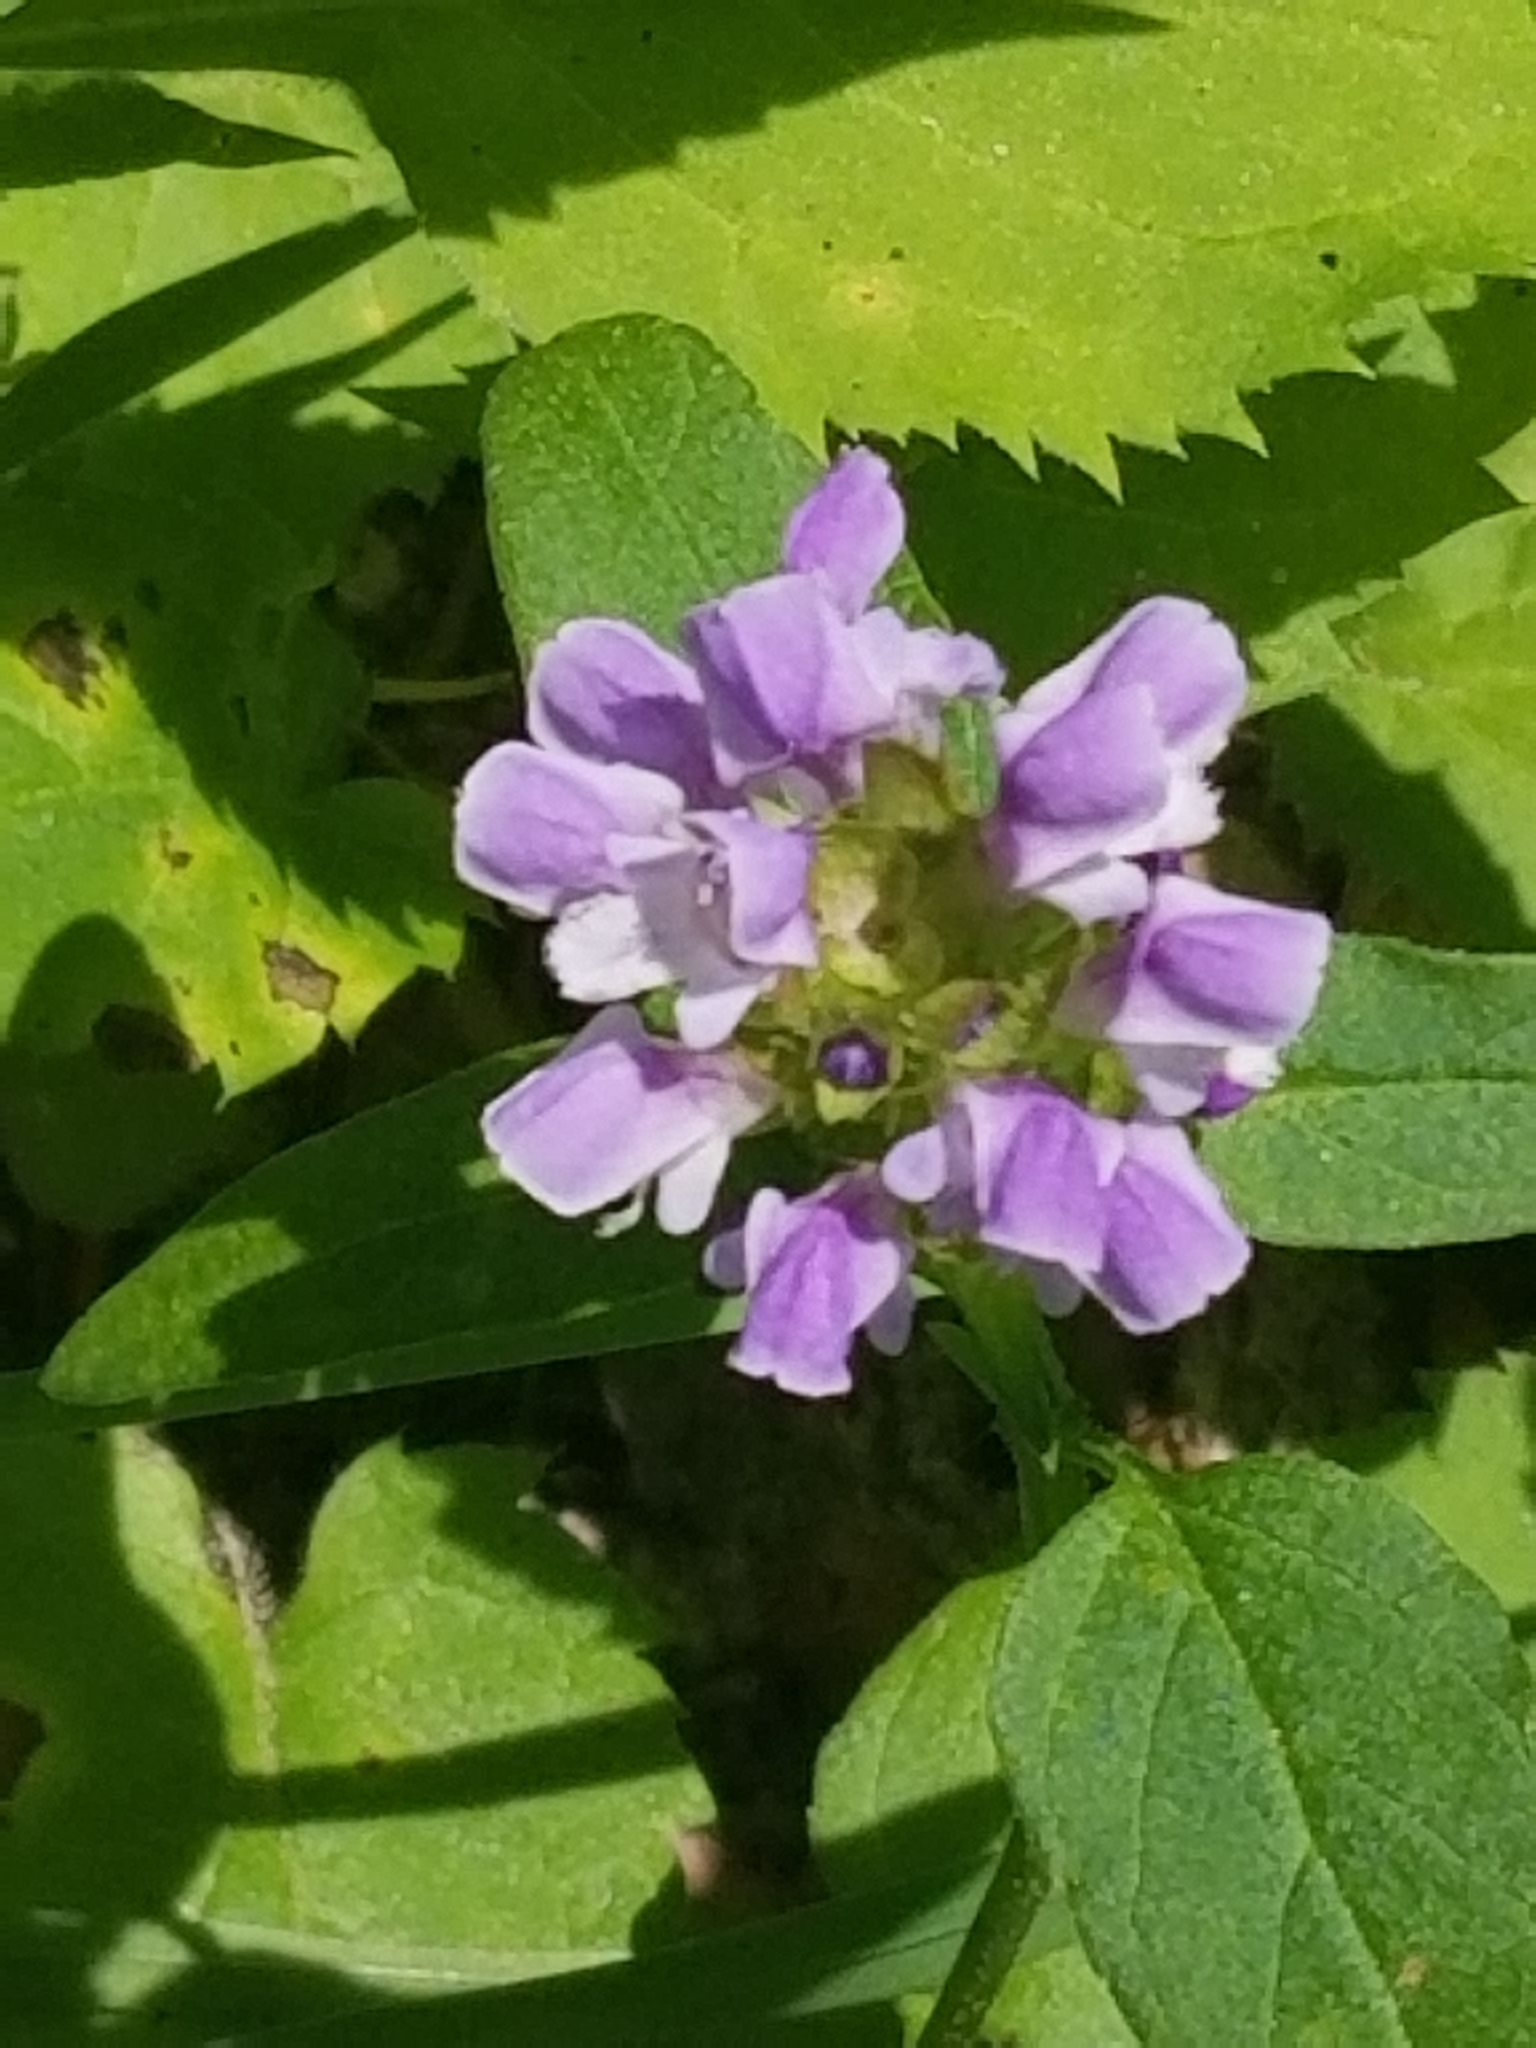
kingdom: Plantae
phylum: Tracheophyta
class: Magnoliopsida
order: Lamiales
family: Lamiaceae
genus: Prunella
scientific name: Prunella vulgaris
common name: Heal-all
